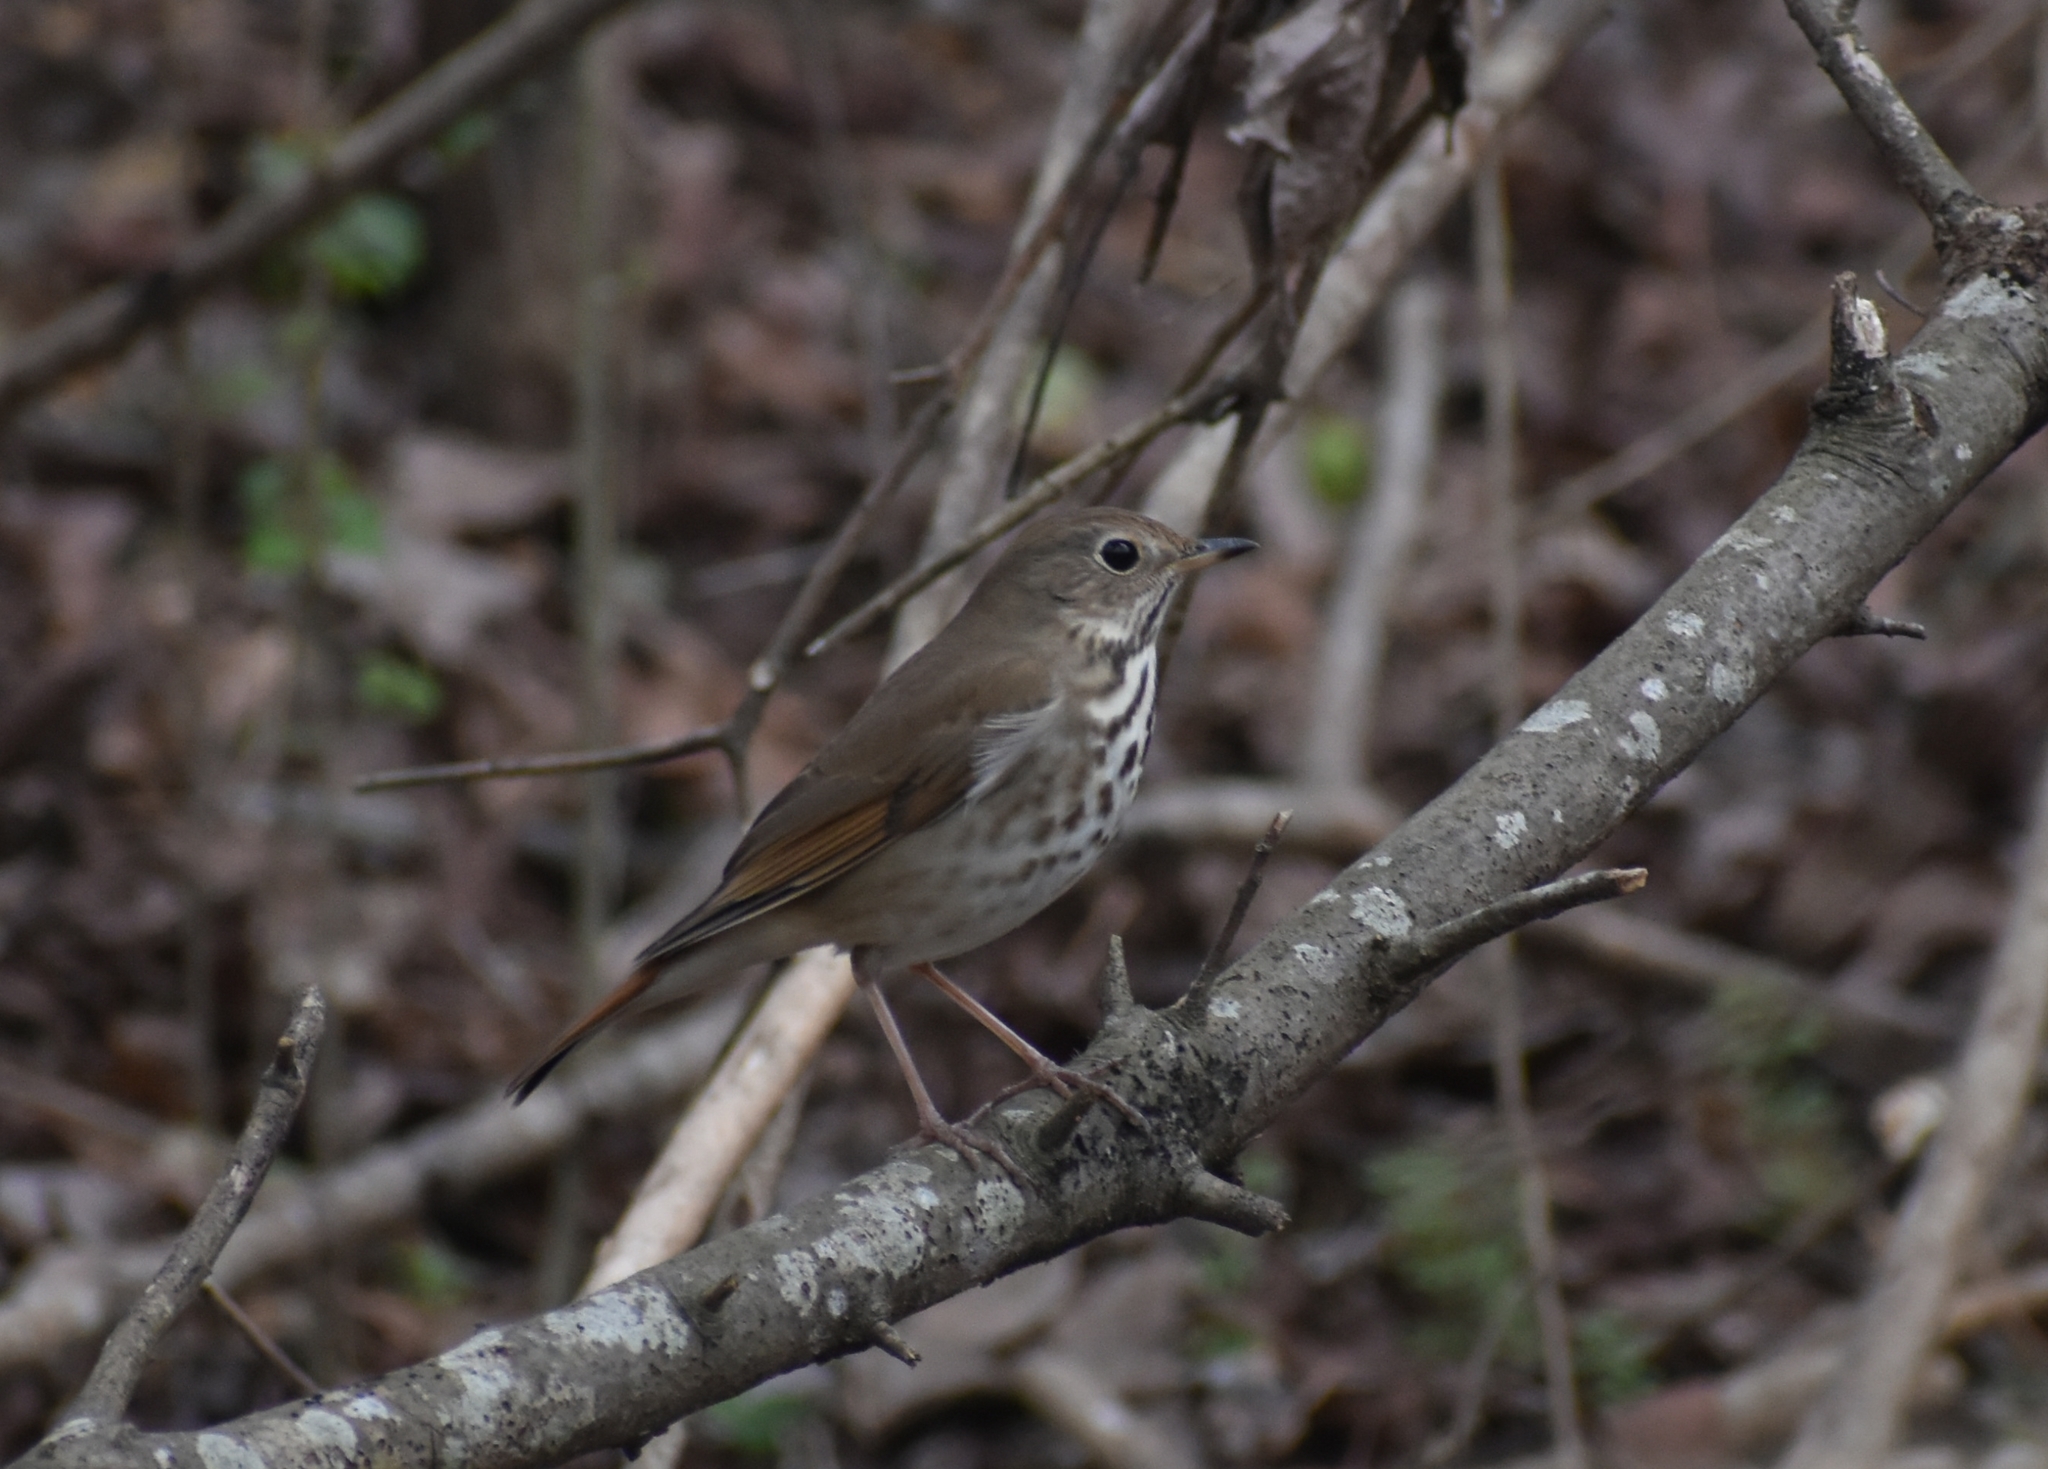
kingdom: Animalia
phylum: Chordata
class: Aves
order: Passeriformes
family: Turdidae
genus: Catharus
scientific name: Catharus guttatus
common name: Hermit thrush
